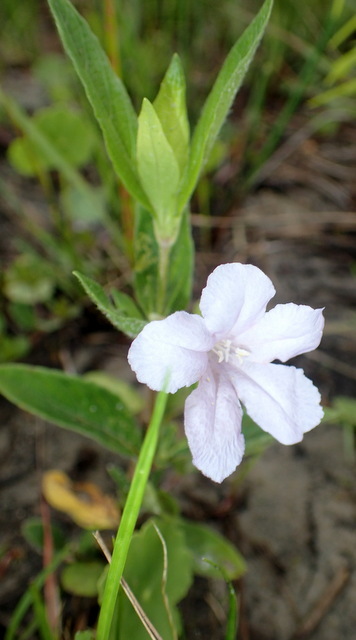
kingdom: Plantae
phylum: Tracheophyta
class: Magnoliopsida
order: Lamiales
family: Acanthaceae
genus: Ruellia
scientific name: Ruellia caroliniensis
